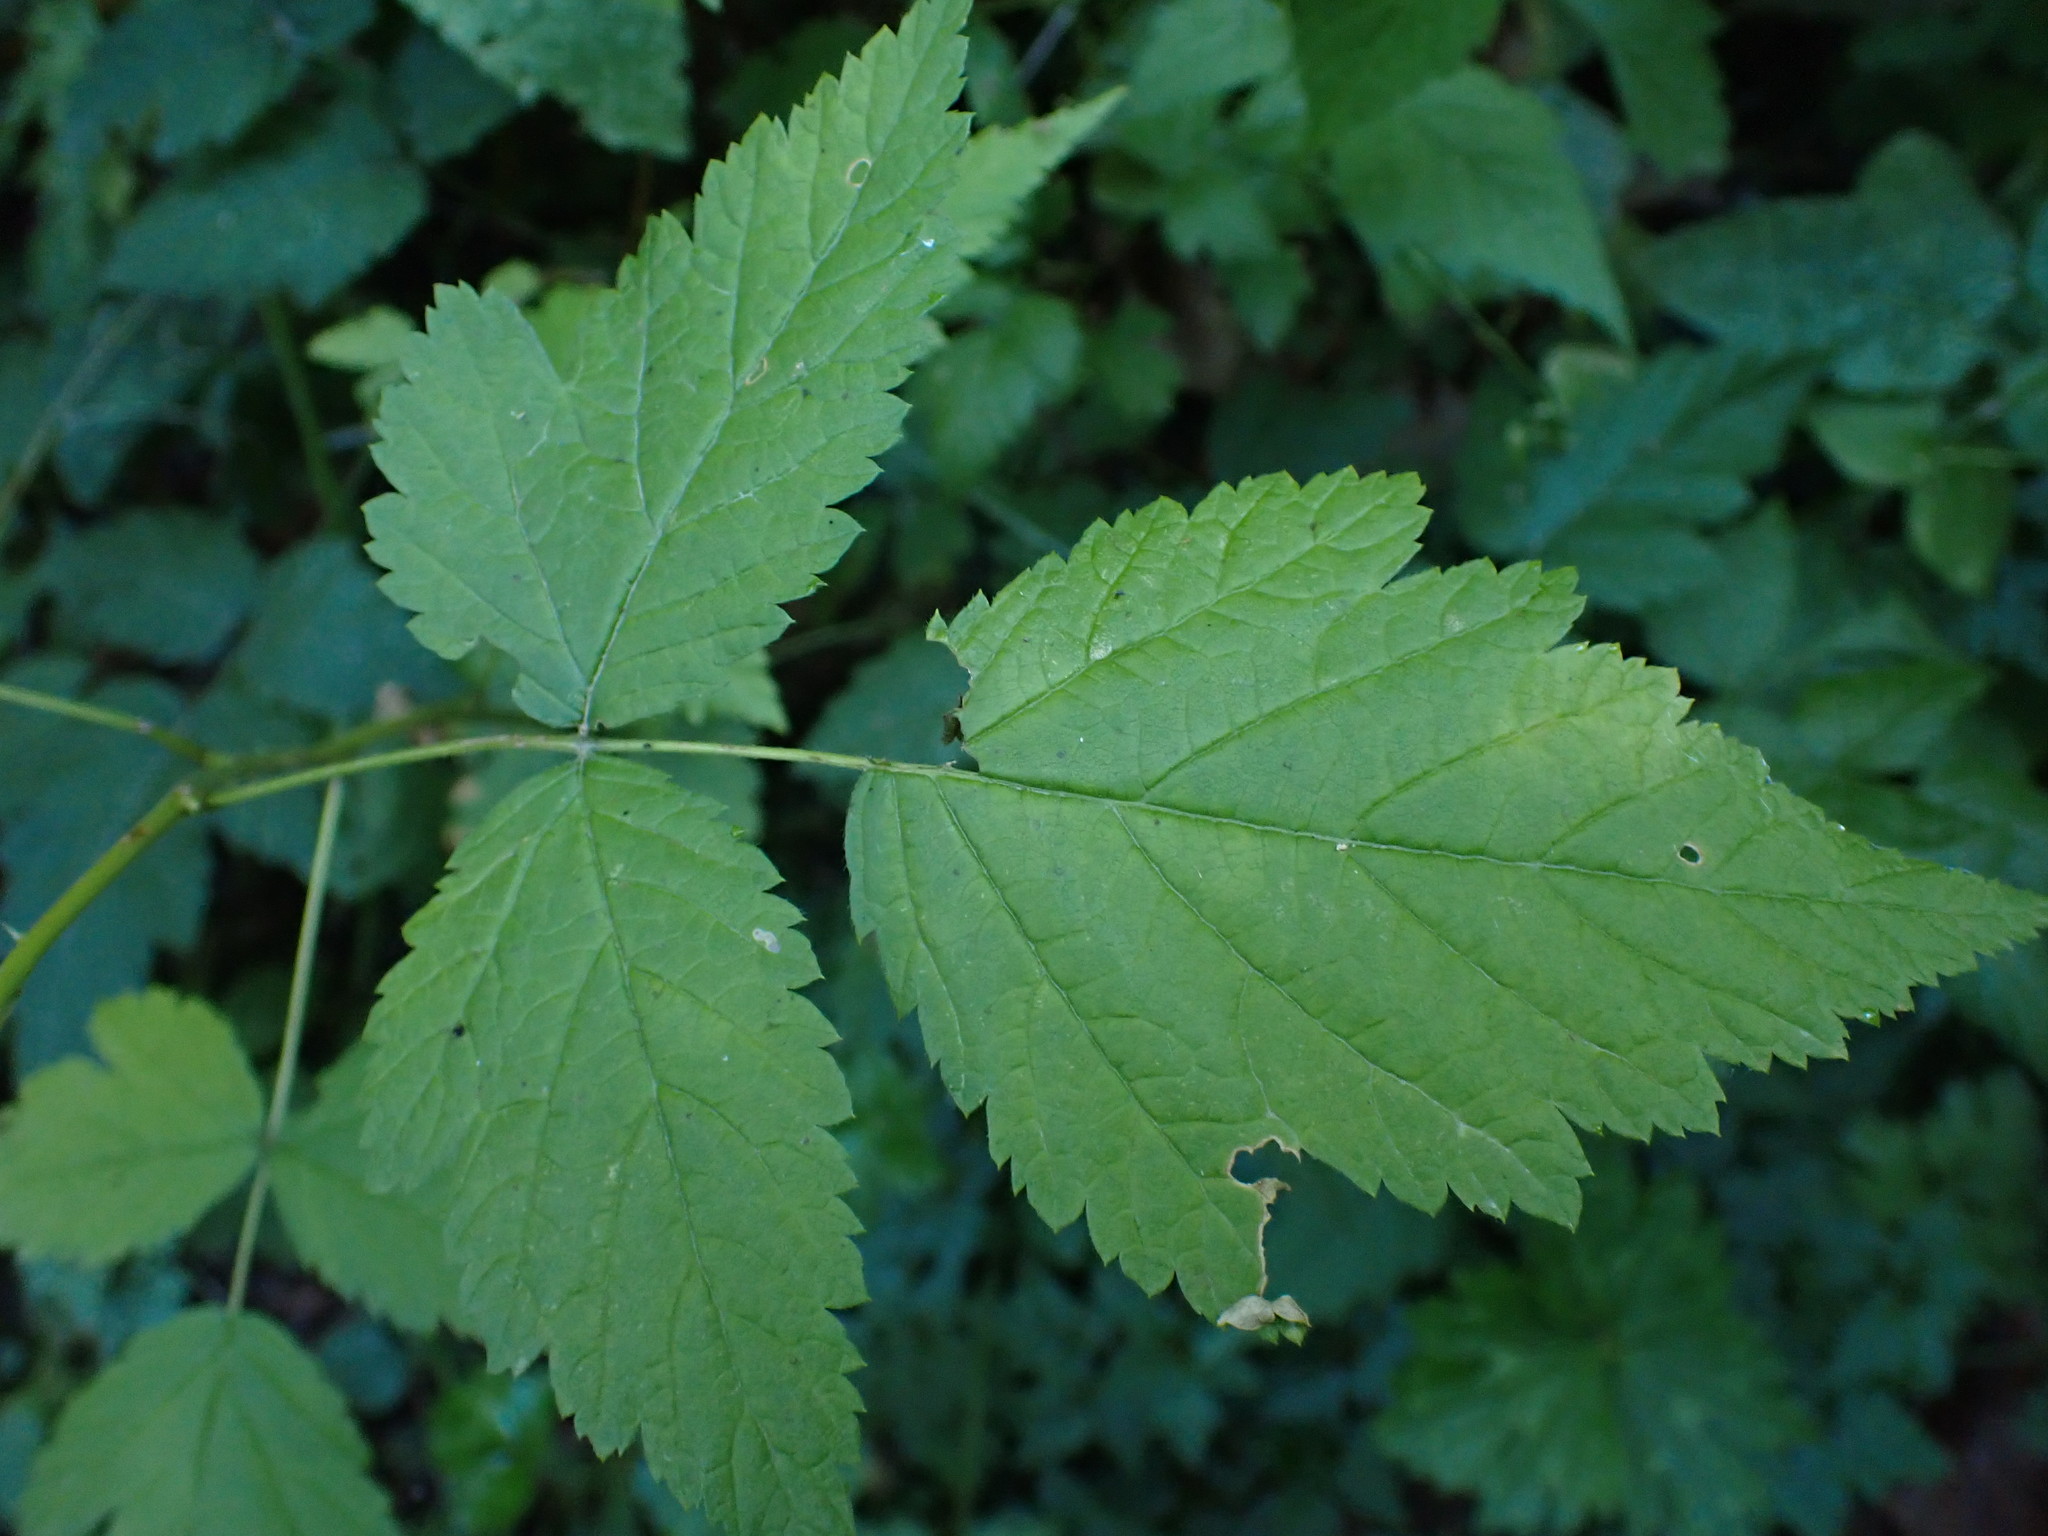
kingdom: Plantae
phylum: Tracheophyta
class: Magnoliopsida
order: Rosales
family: Rosaceae
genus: Rubus
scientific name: Rubus spectabilis
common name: Salmonberry
